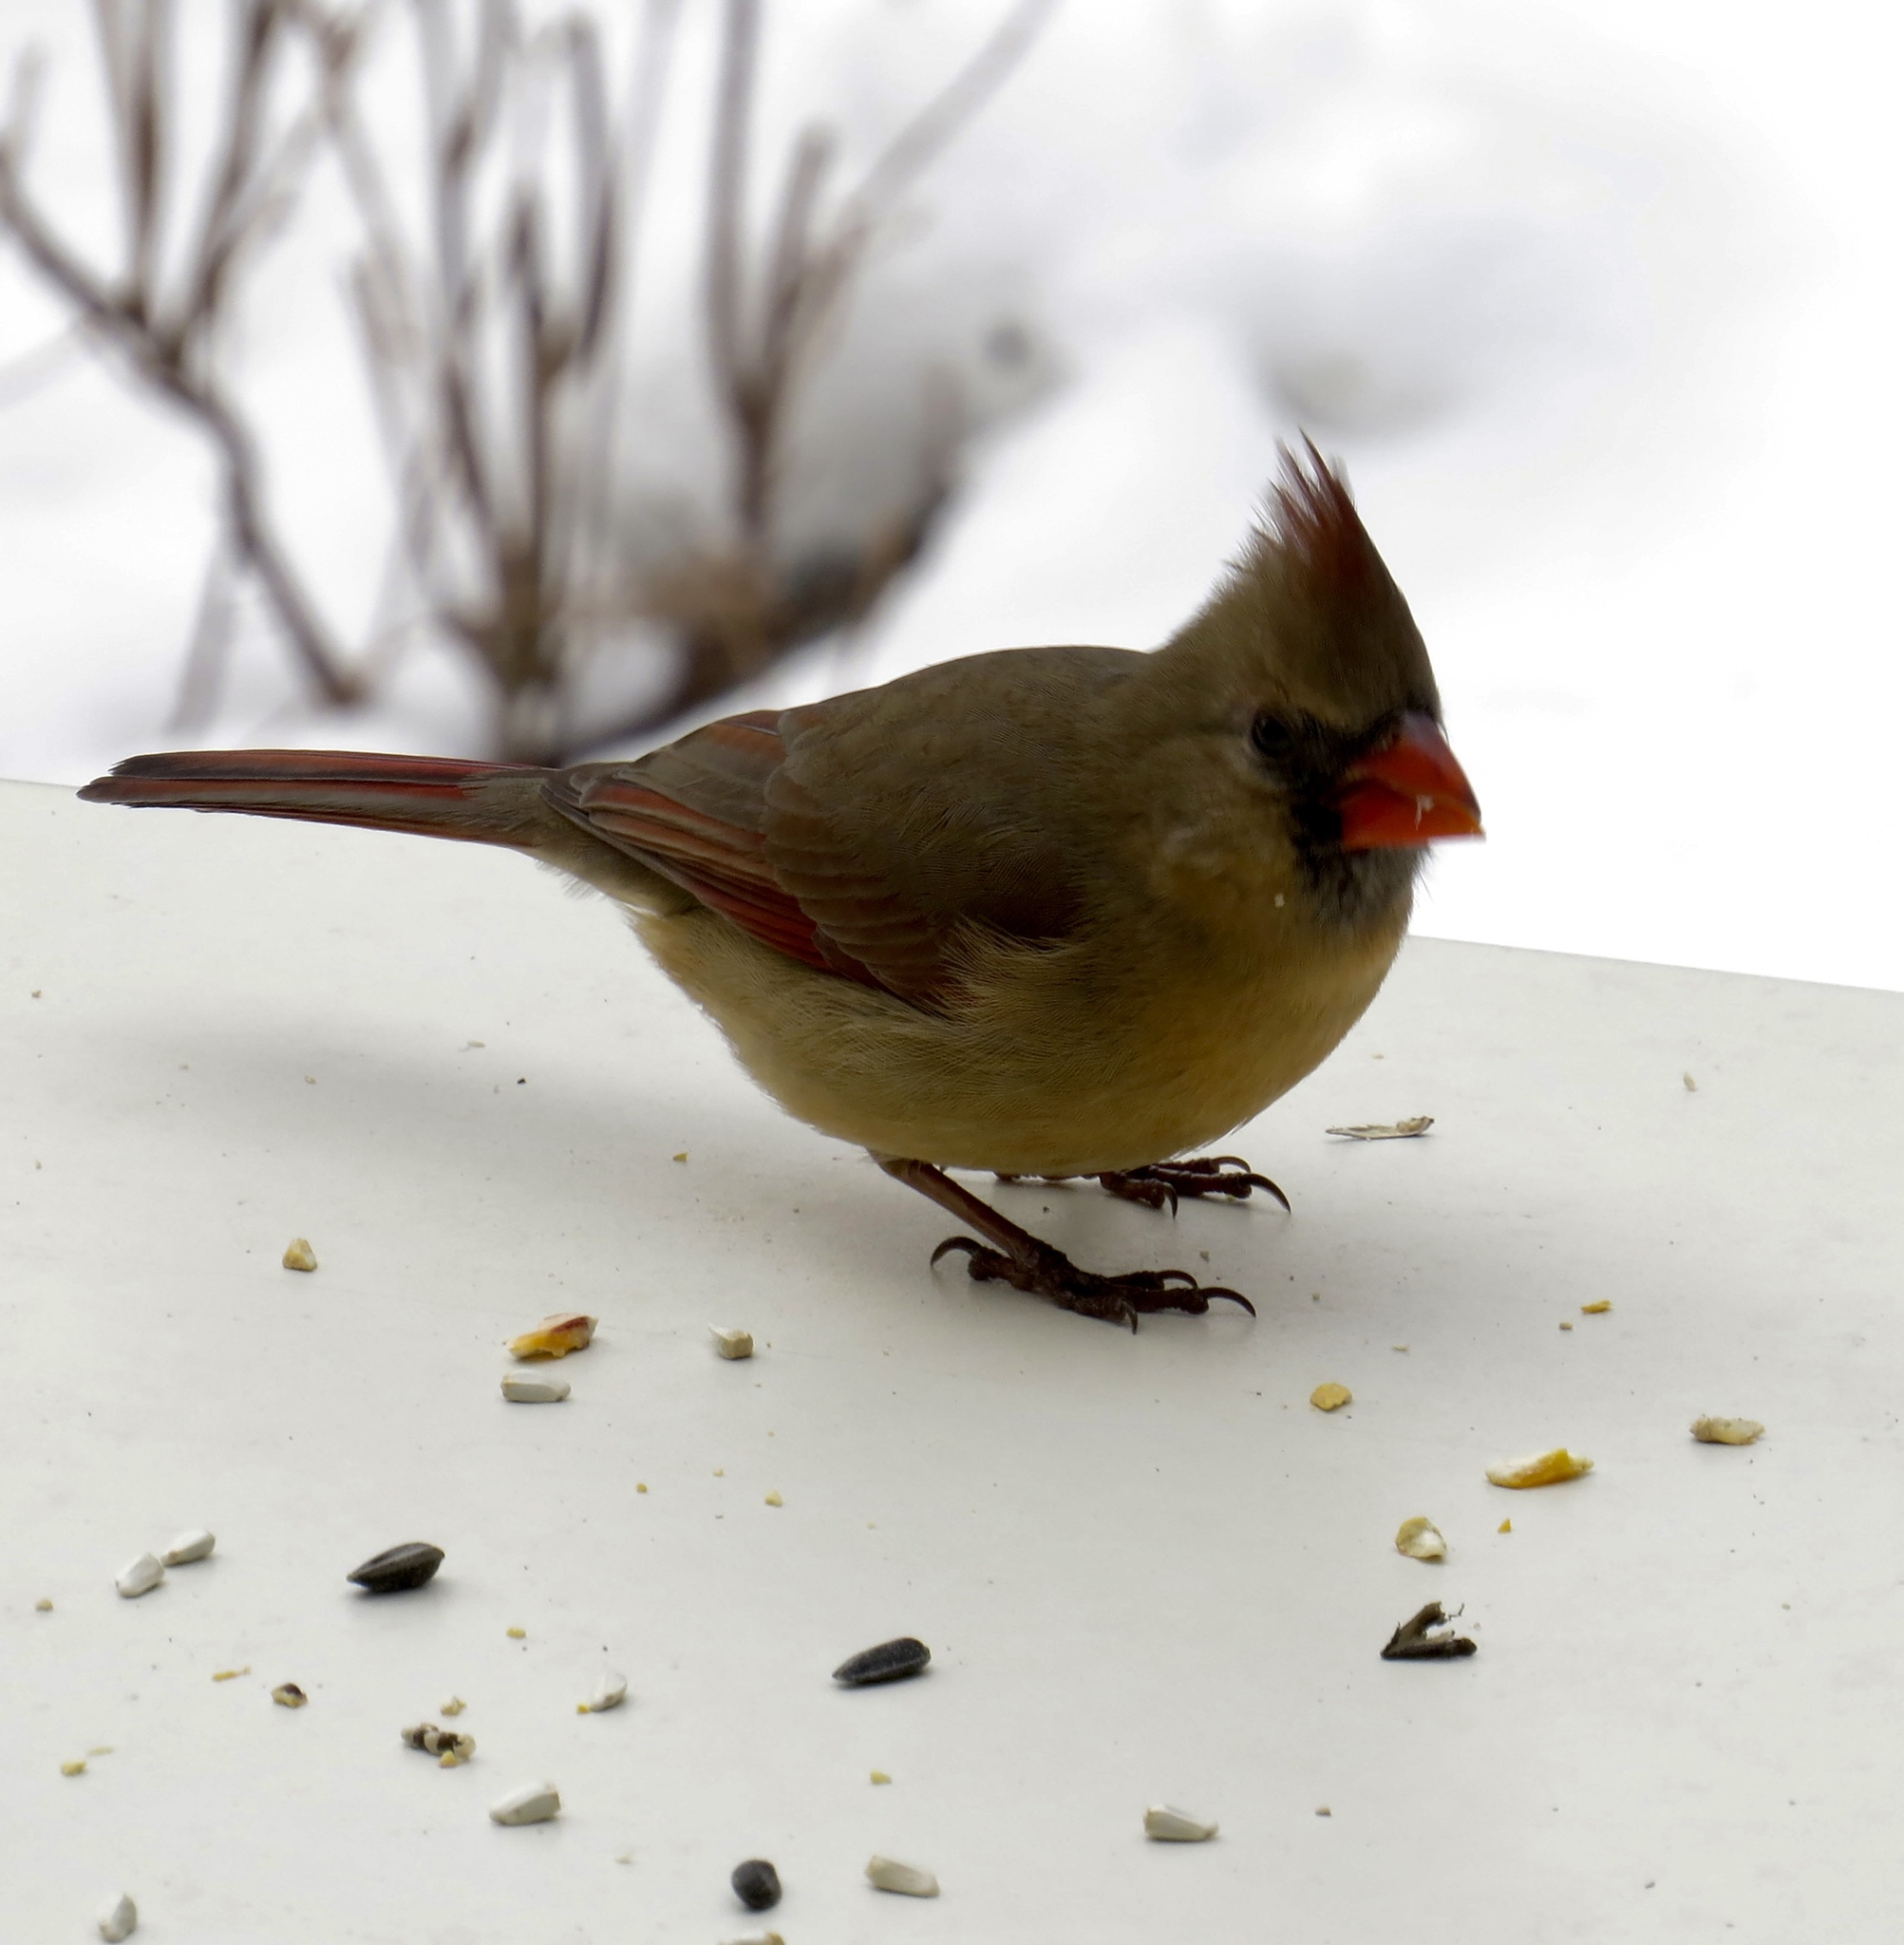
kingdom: Animalia
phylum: Chordata
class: Aves
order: Passeriformes
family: Cardinalidae
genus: Cardinalis
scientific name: Cardinalis cardinalis
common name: Northern cardinal
